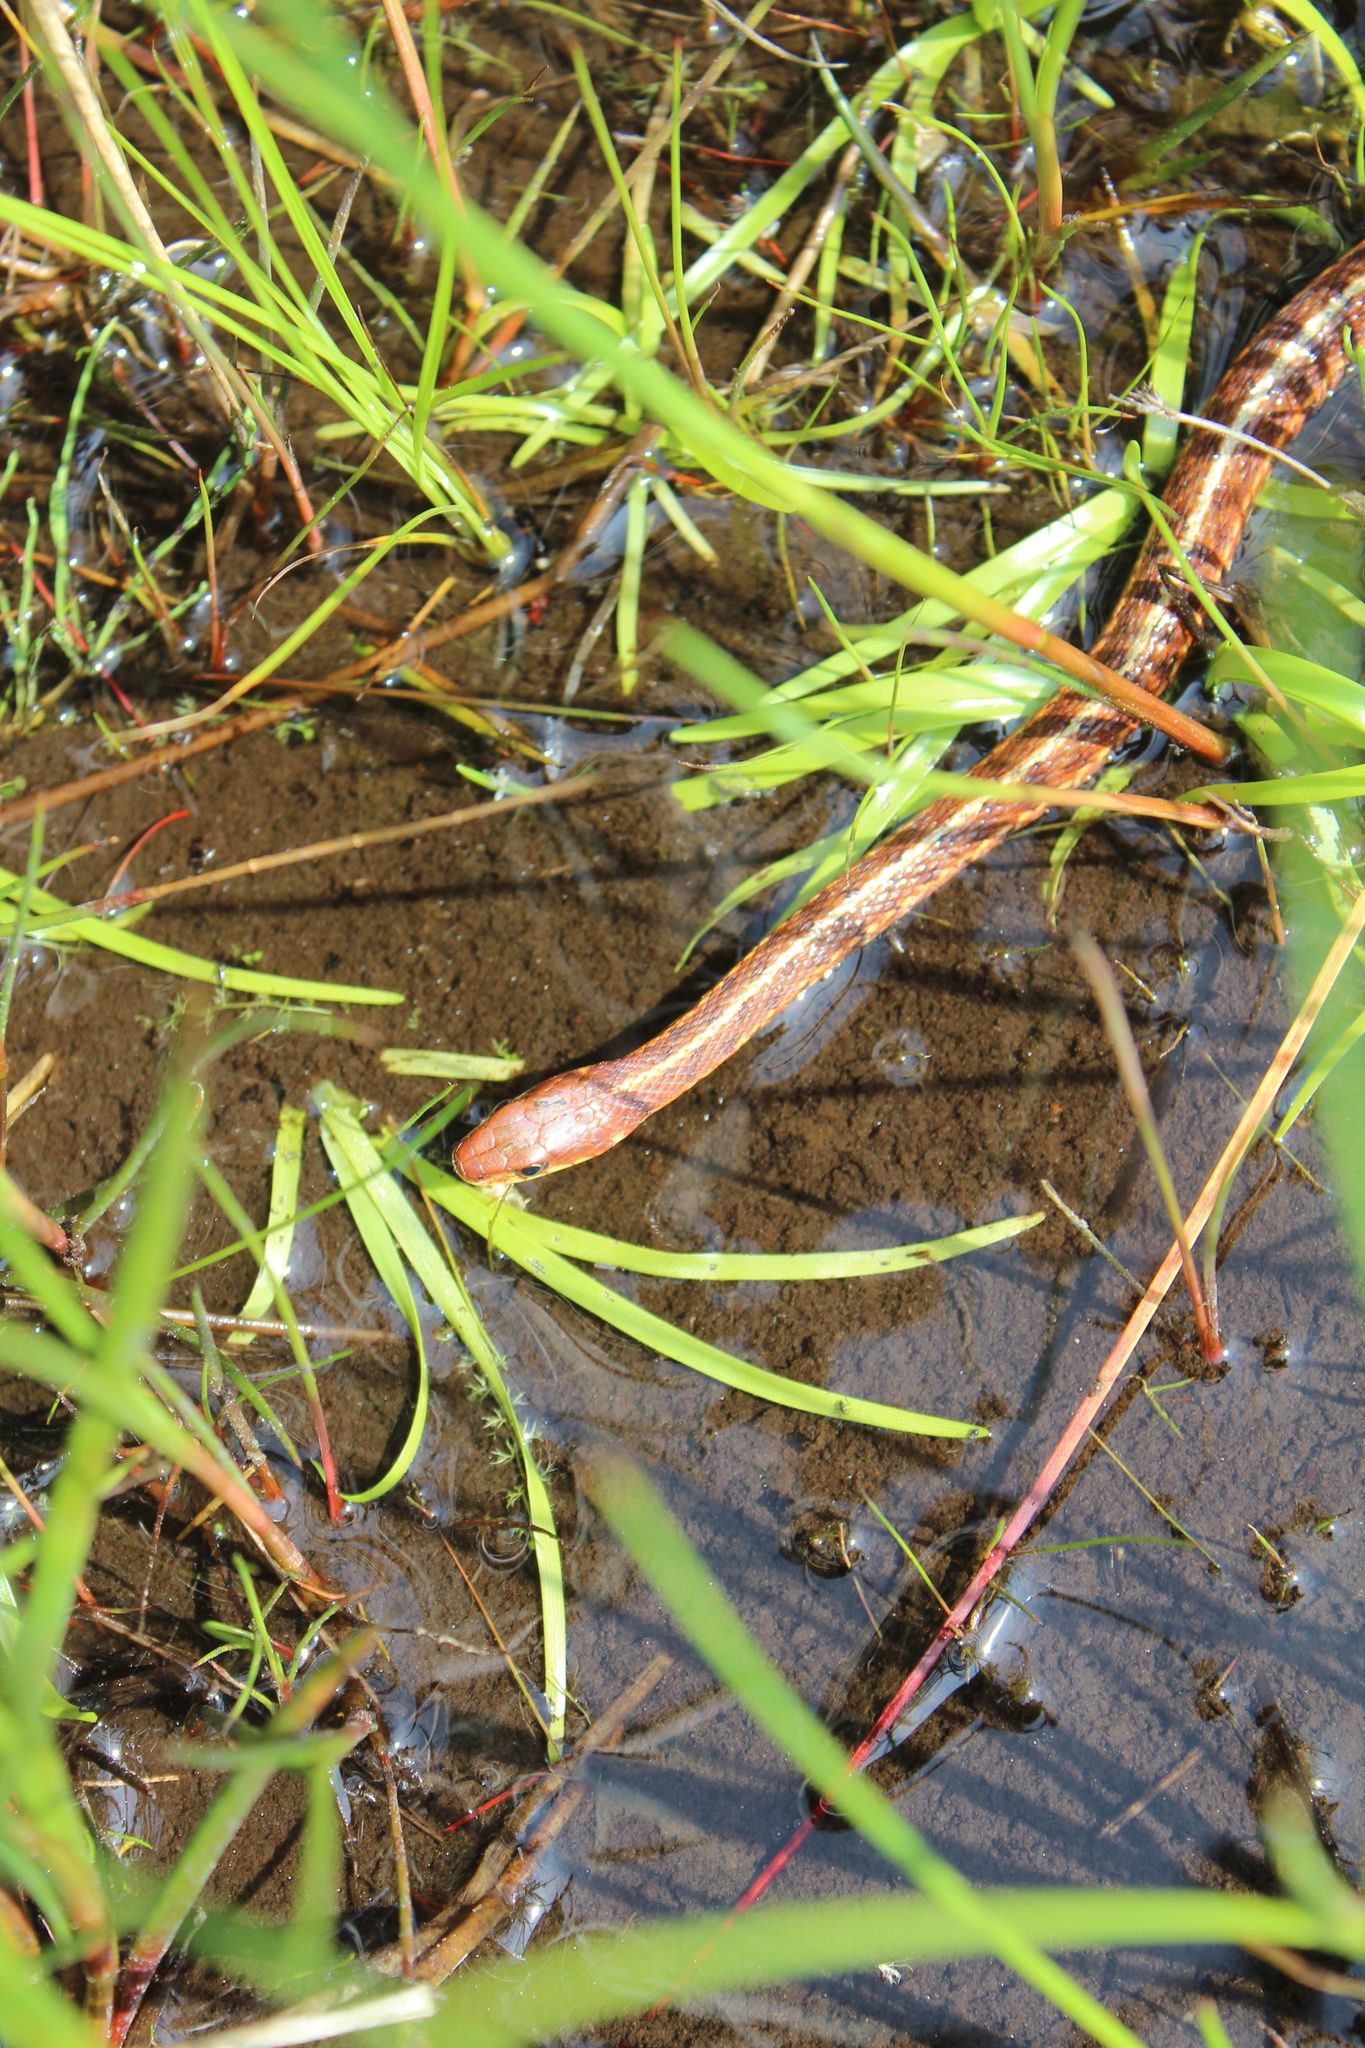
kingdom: Animalia
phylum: Chordata
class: Squamata
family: Colubridae
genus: Thamnophis
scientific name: Thamnophis sirtalis
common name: Common garter snake
